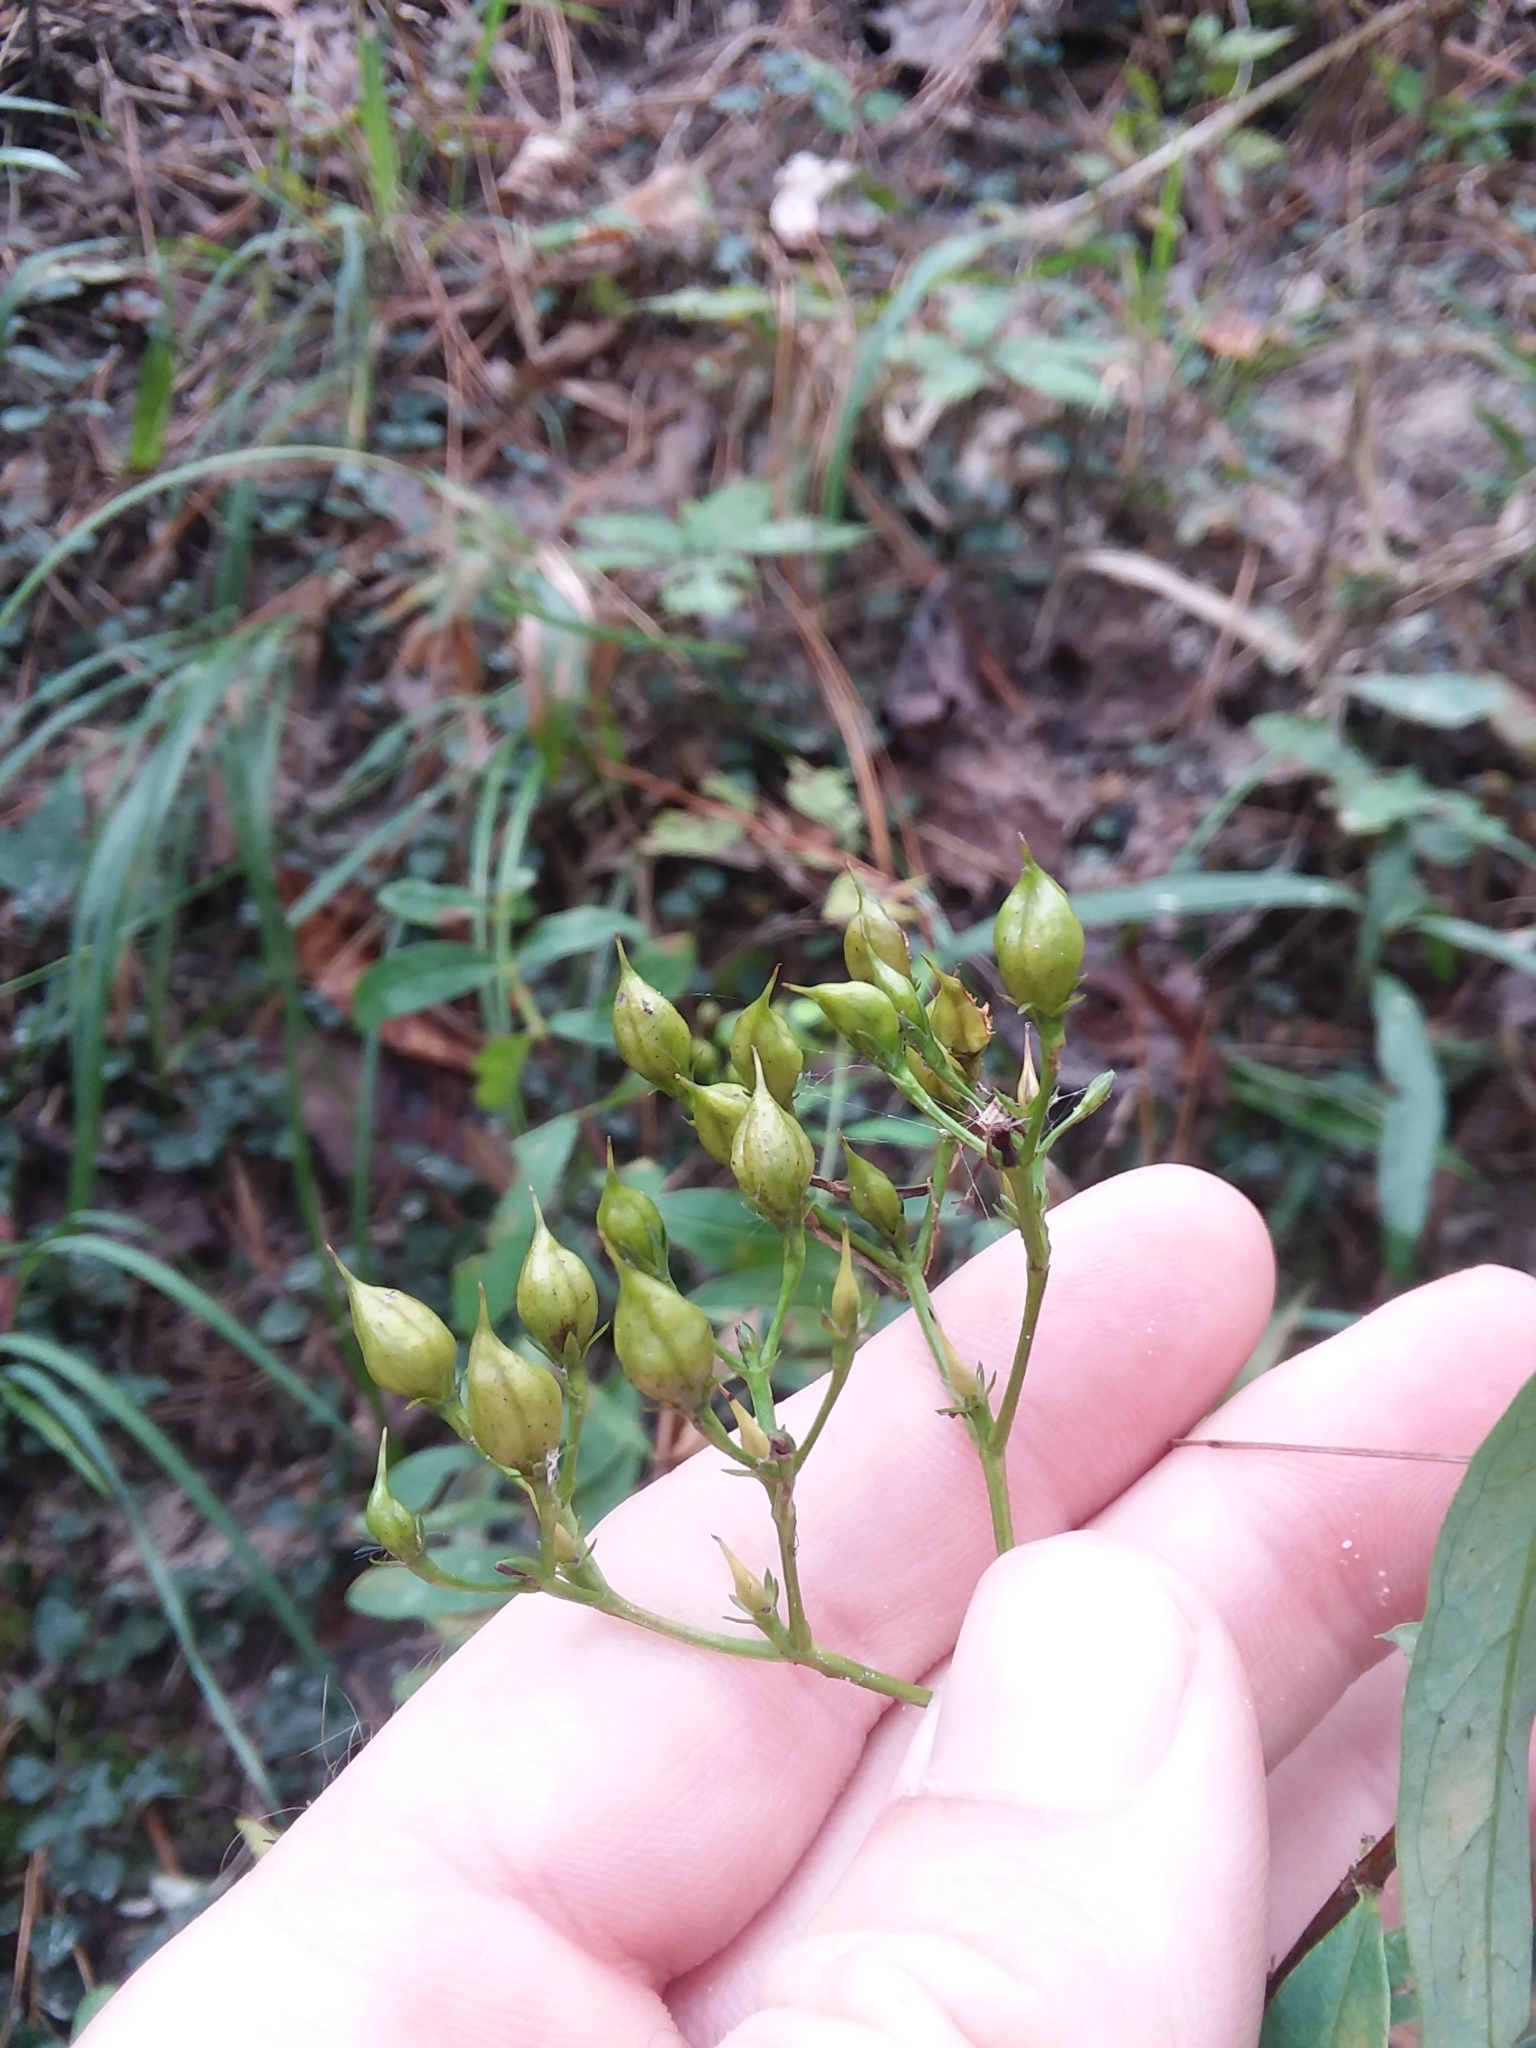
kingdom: Plantae
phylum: Tracheophyta
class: Magnoliopsida
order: Malpighiales
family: Hypericaceae
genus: Hypericum
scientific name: Hypericum nudiflorum
